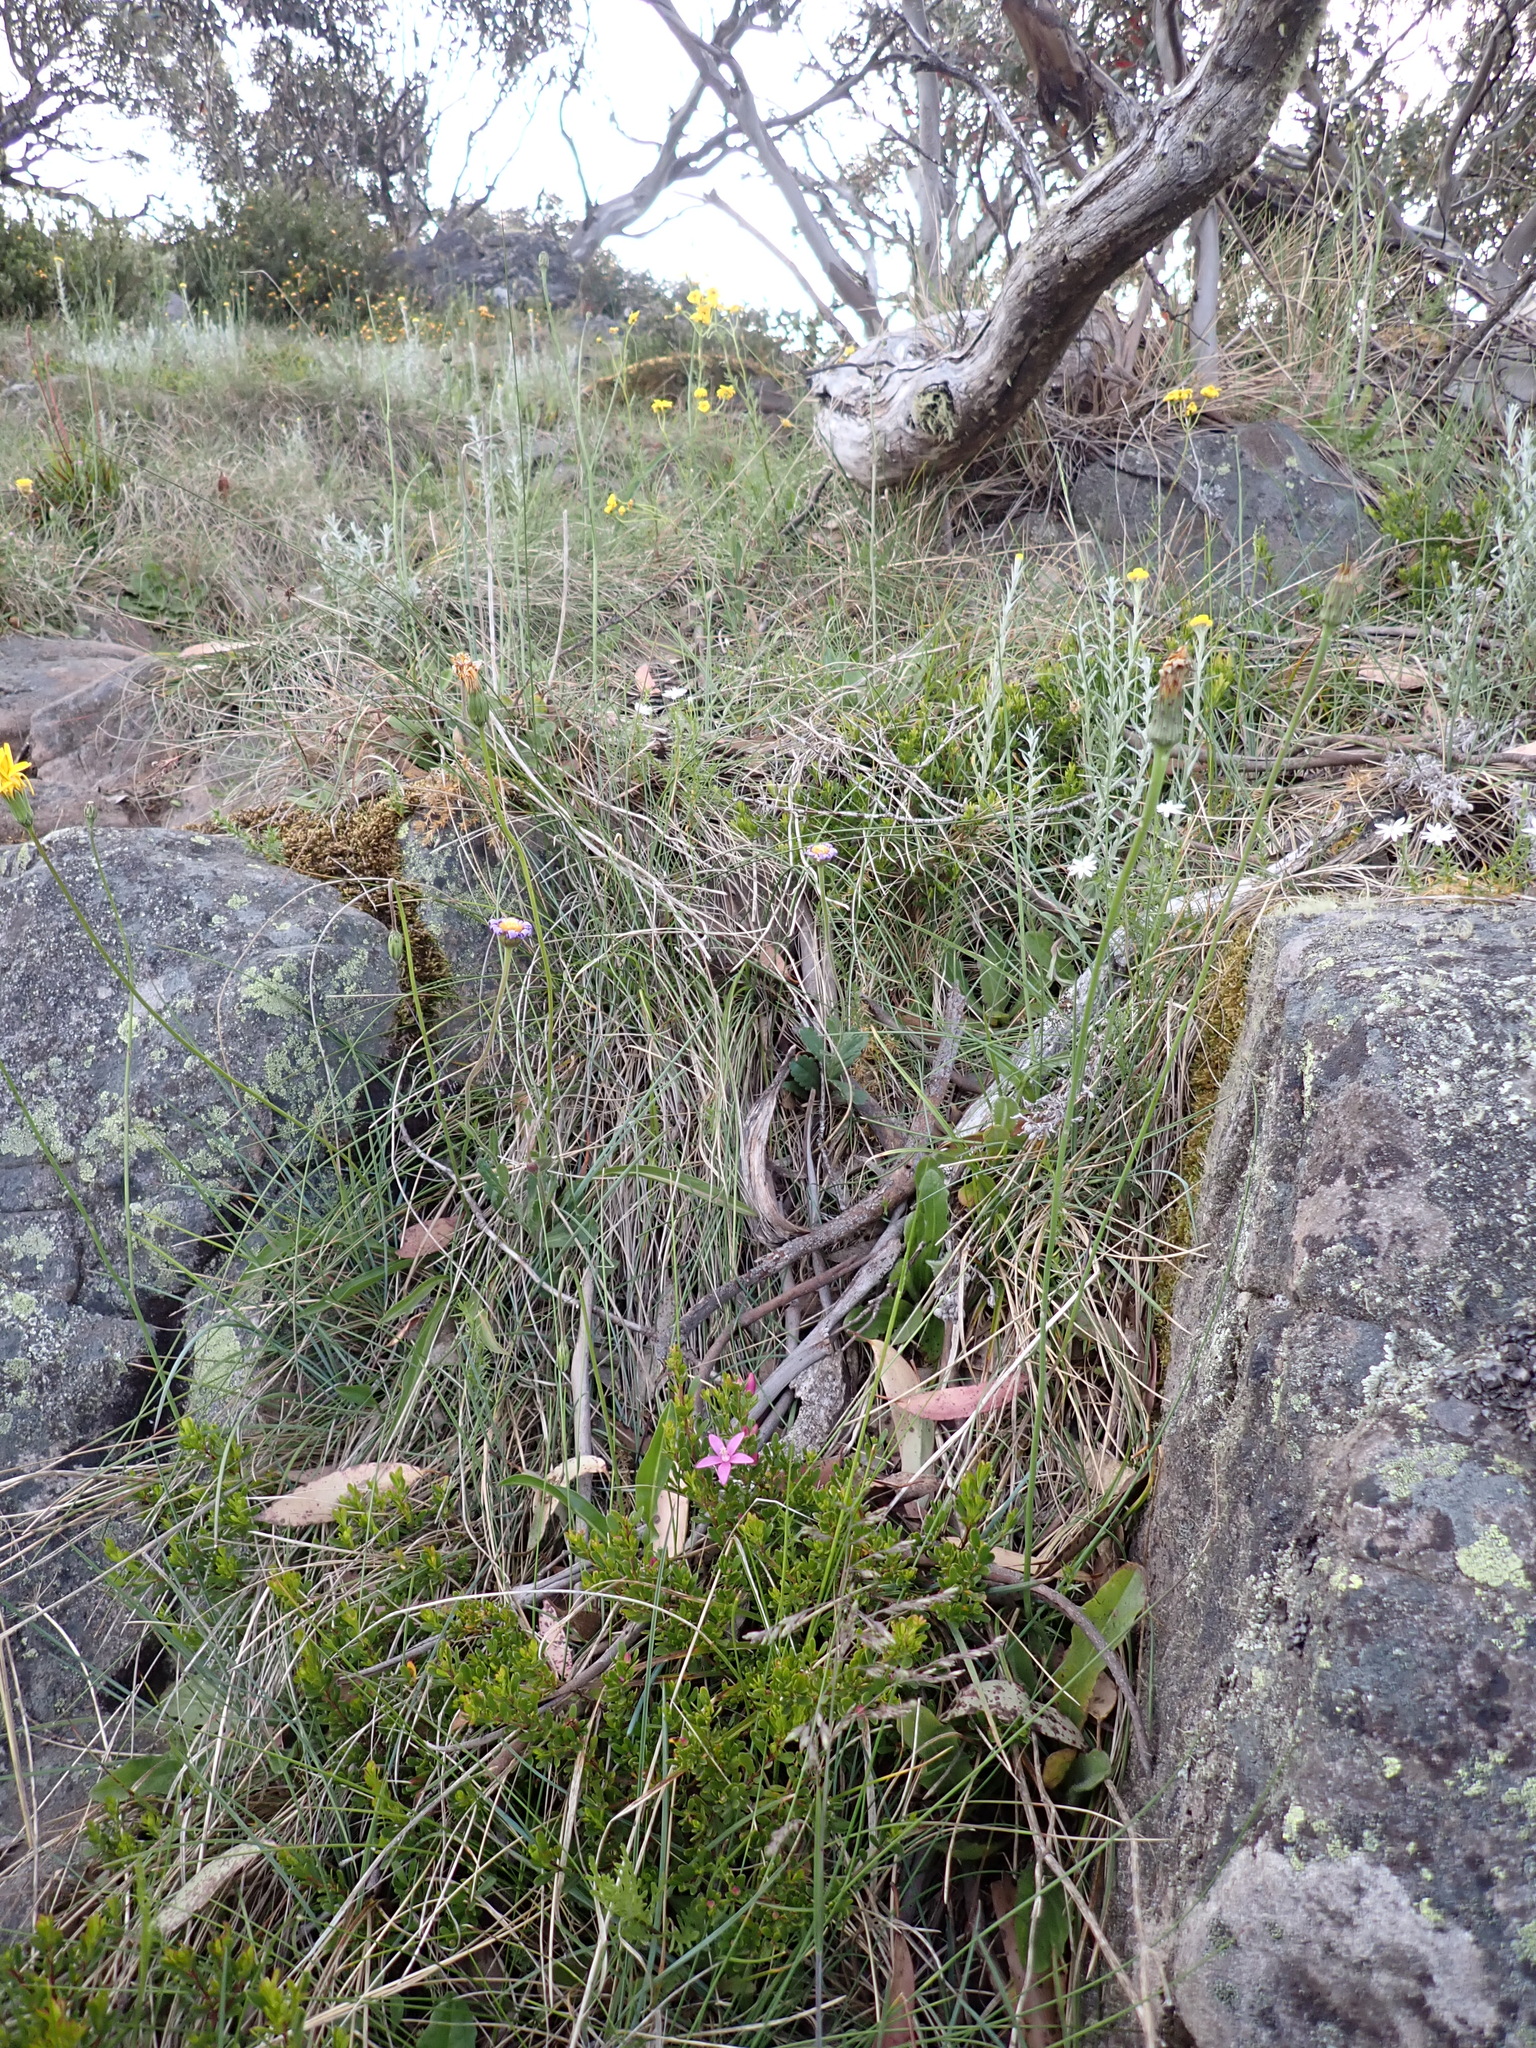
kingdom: Plantae
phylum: Tracheophyta
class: Magnoliopsida
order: Sapindales
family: Rutaceae
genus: Crowea
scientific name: Crowea exalata
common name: Small crowea
